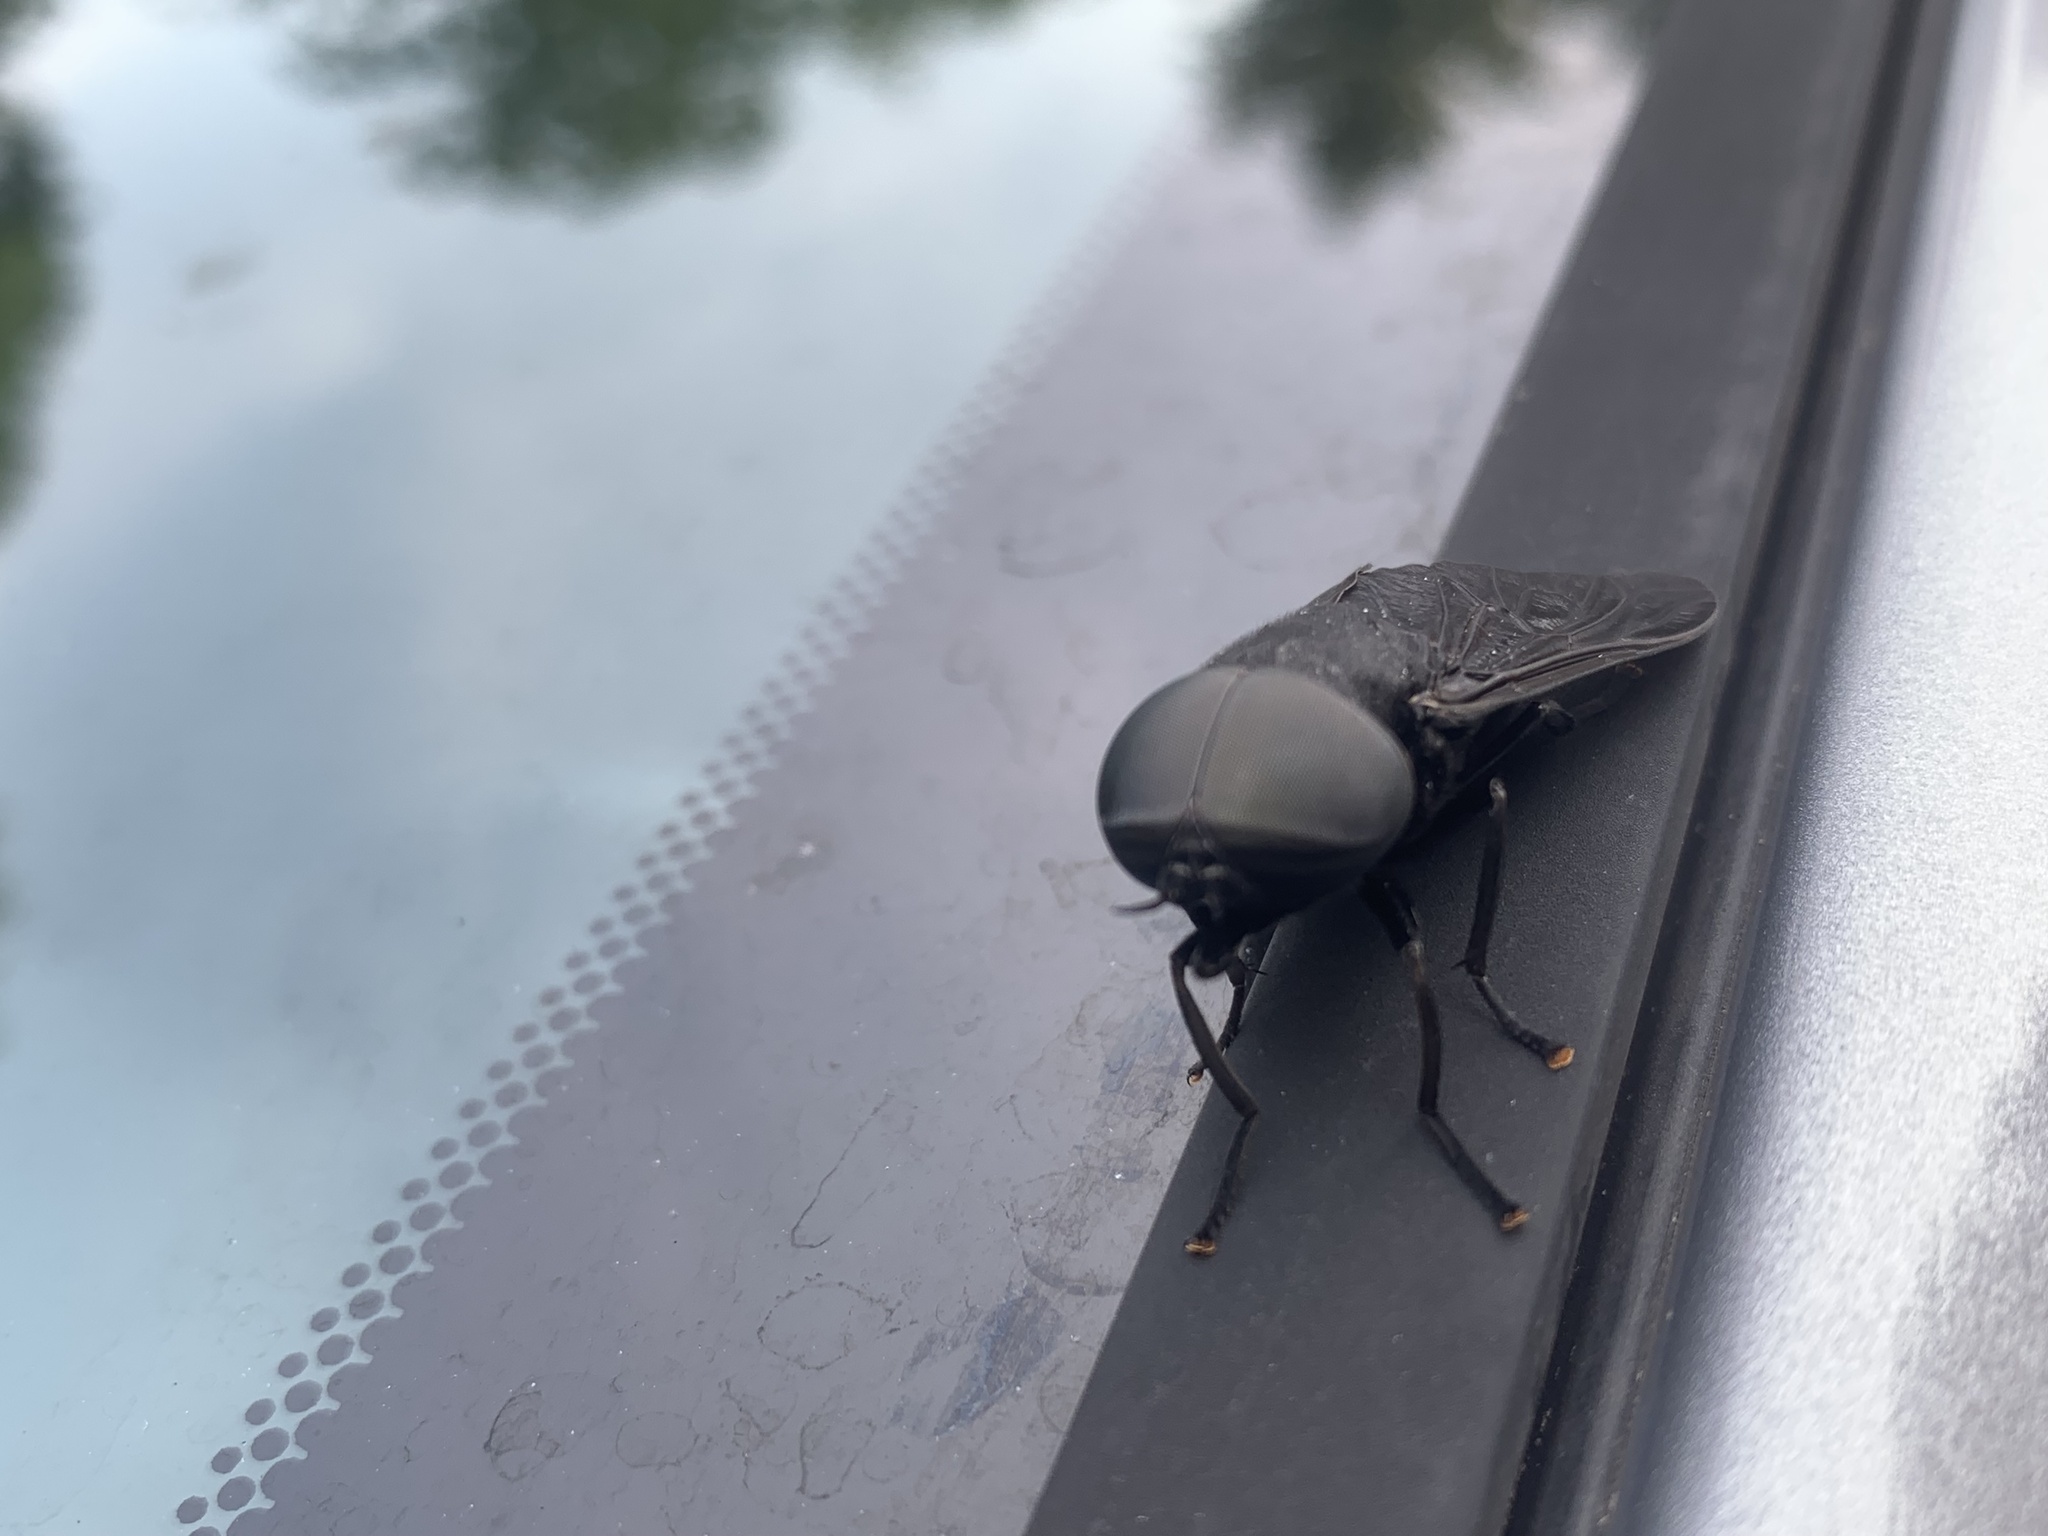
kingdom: Animalia
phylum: Arthropoda
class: Insecta
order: Diptera
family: Tabanidae
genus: Tabanus
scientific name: Tabanus atratus
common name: Black horse fly
